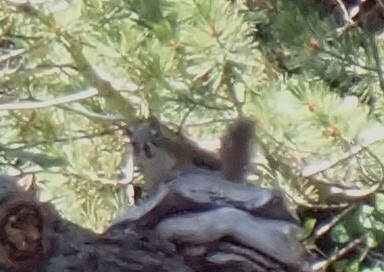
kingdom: Animalia
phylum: Chordata
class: Mammalia
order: Rodentia
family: Sciuridae
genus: Tamiasciurus
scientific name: Tamiasciurus hudsonicus
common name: Red squirrel
